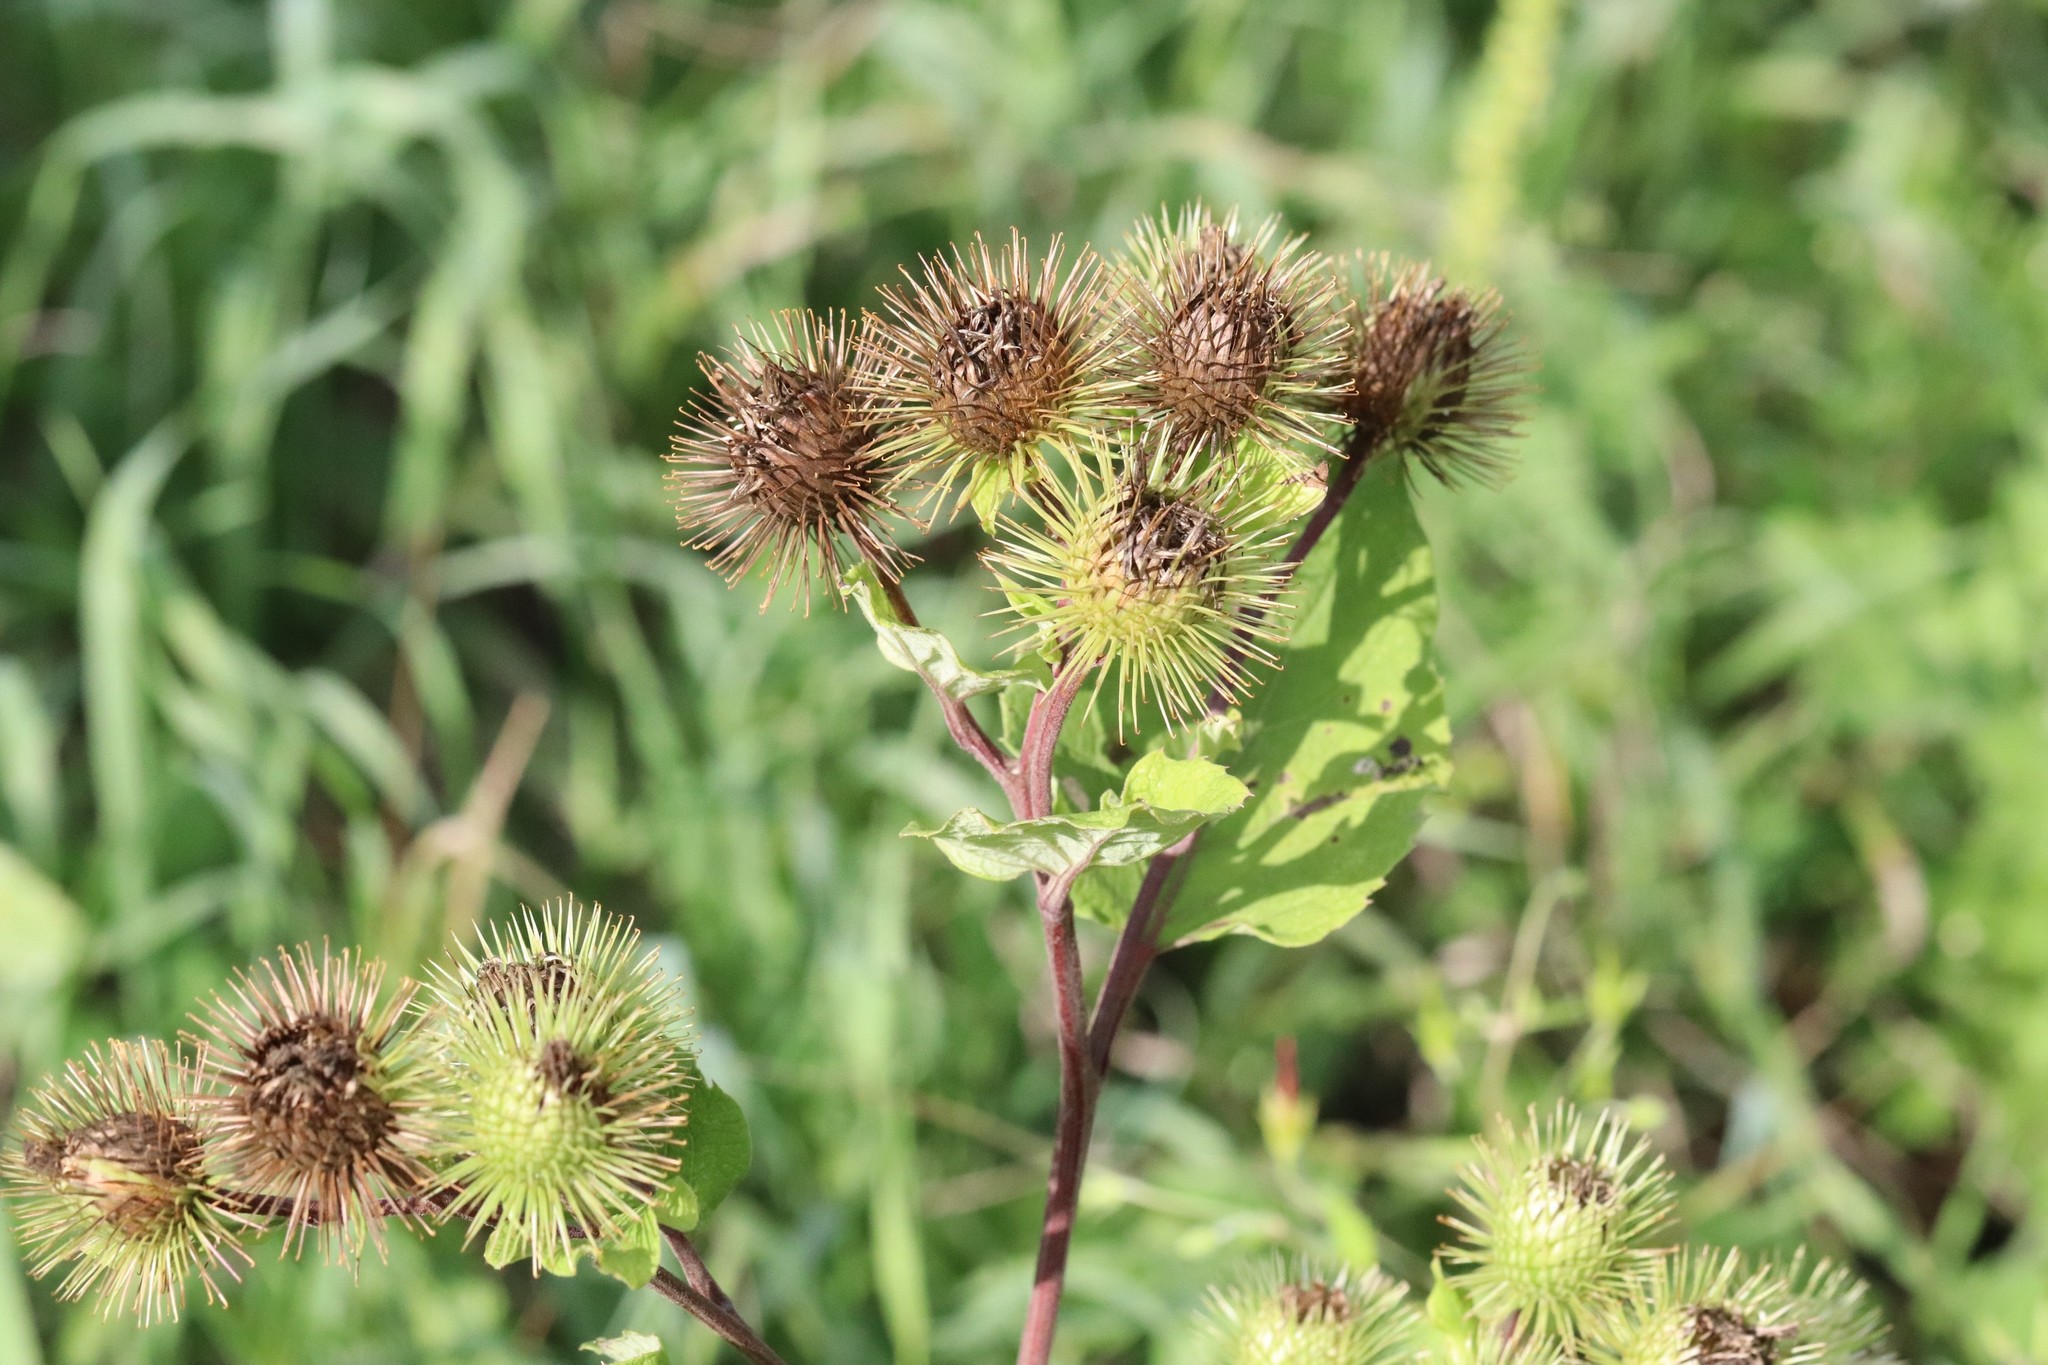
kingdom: Plantae
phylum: Tracheophyta
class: Magnoliopsida
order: Asterales
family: Asteraceae
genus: Arctium
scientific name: Arctium lappa
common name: Greater burdock
